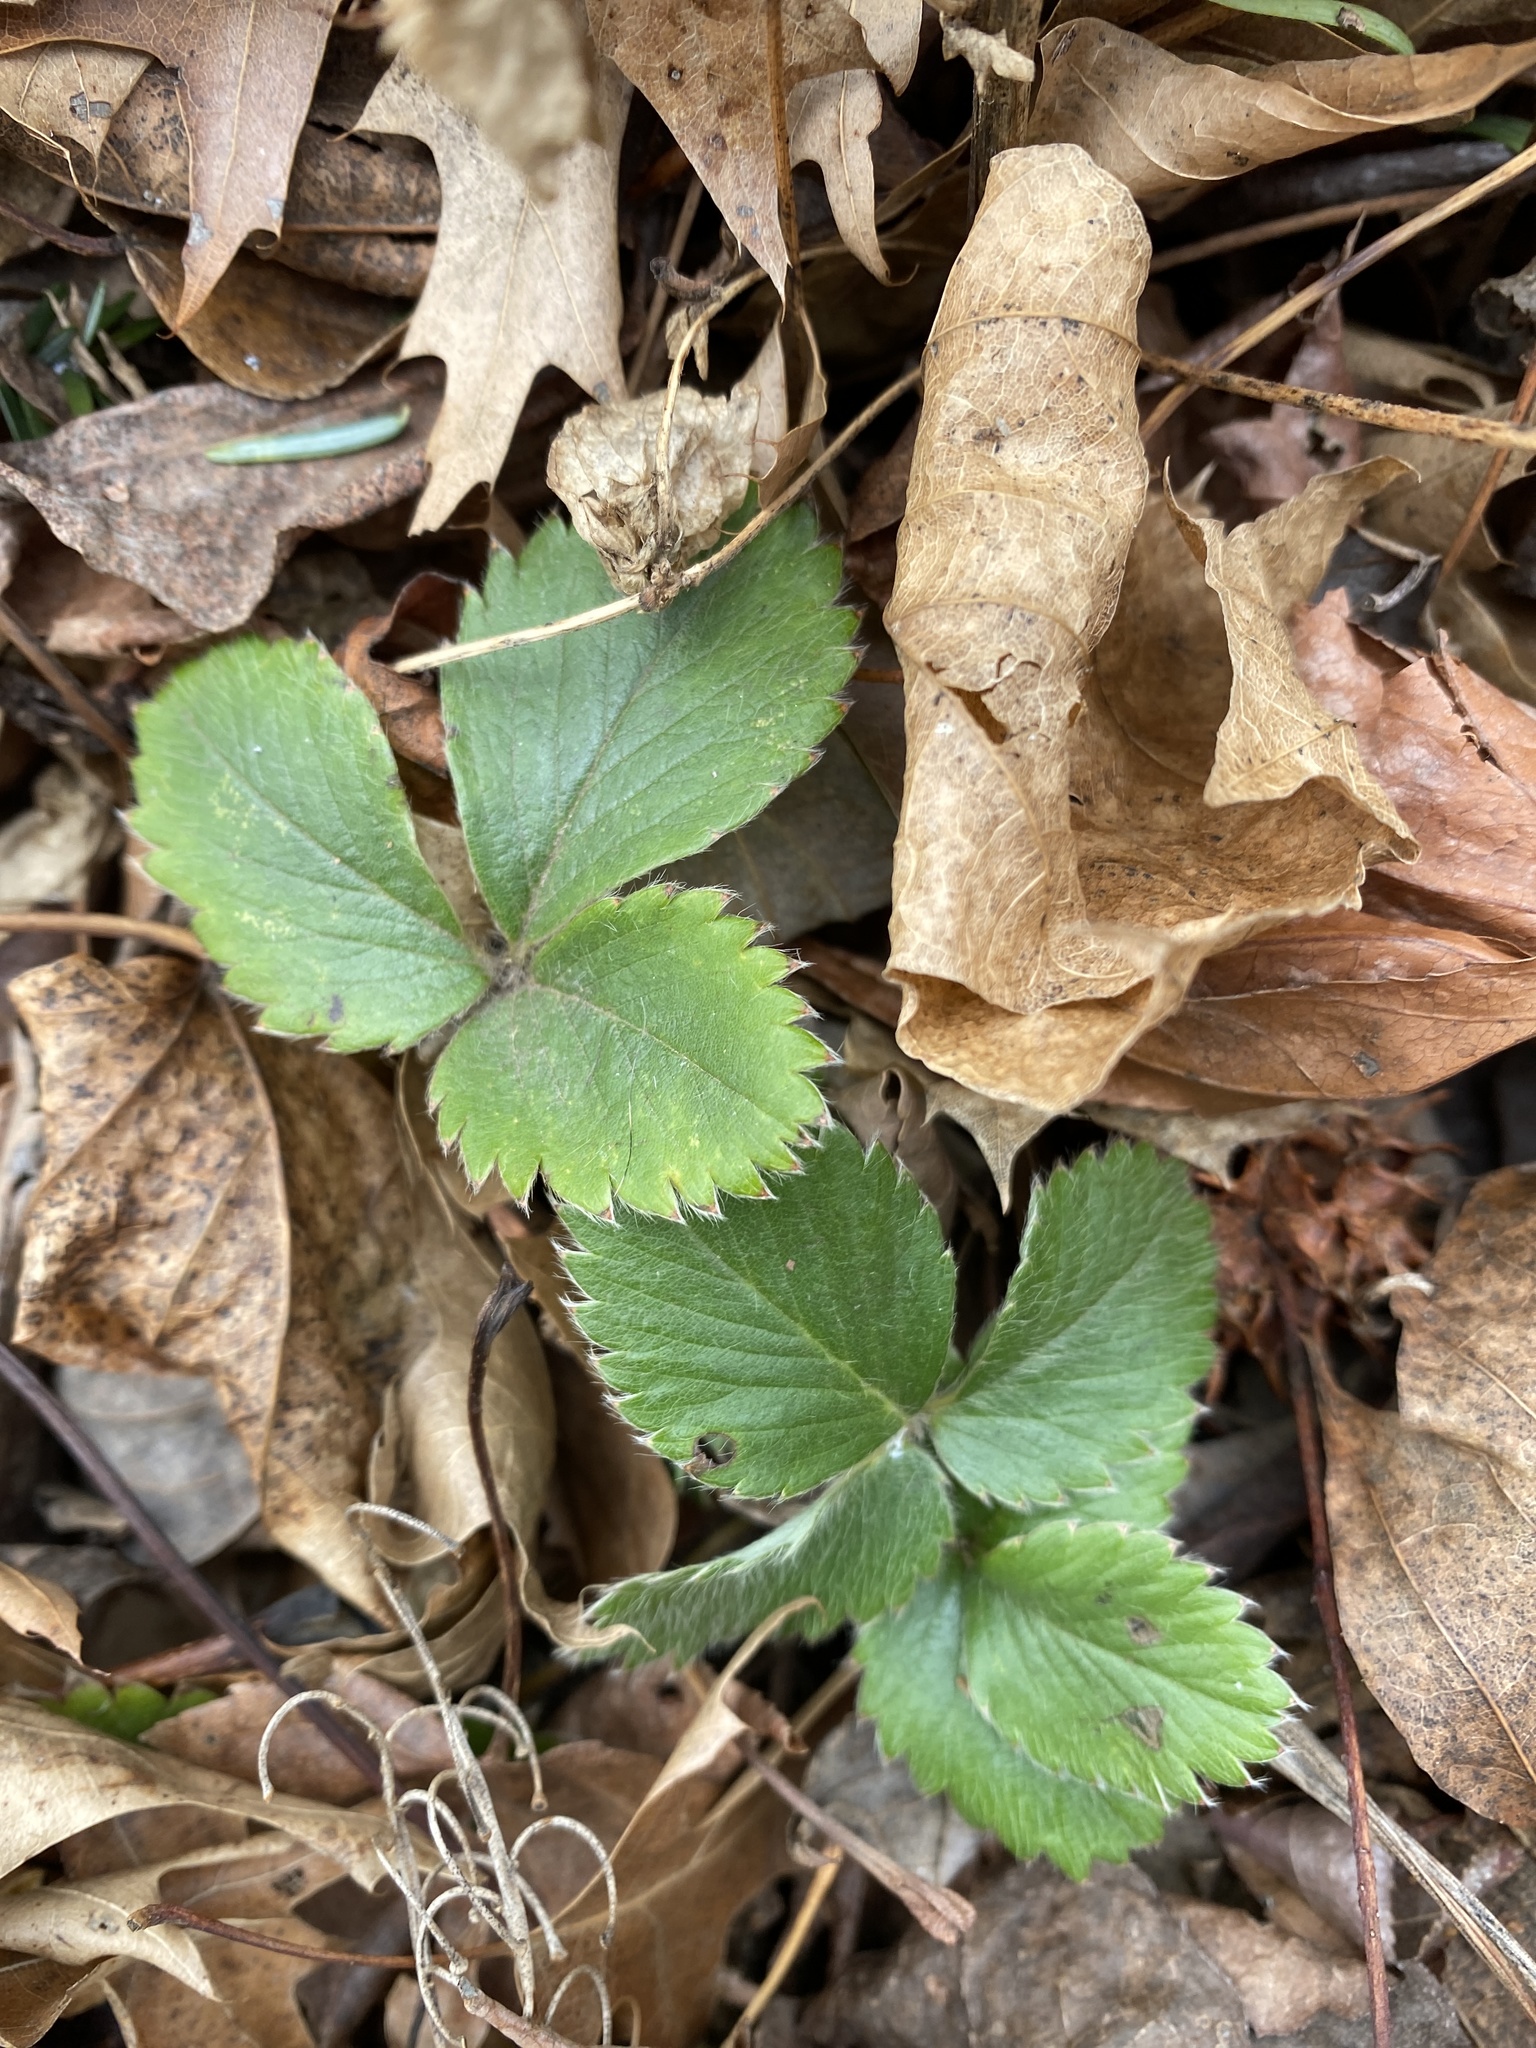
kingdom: Plantae
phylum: Tracheophyta
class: Magnoliopsida
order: Rosales
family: Rosaceae
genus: Fragaria
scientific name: Fragaria virginiana
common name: Thickleaved wild strawberry
